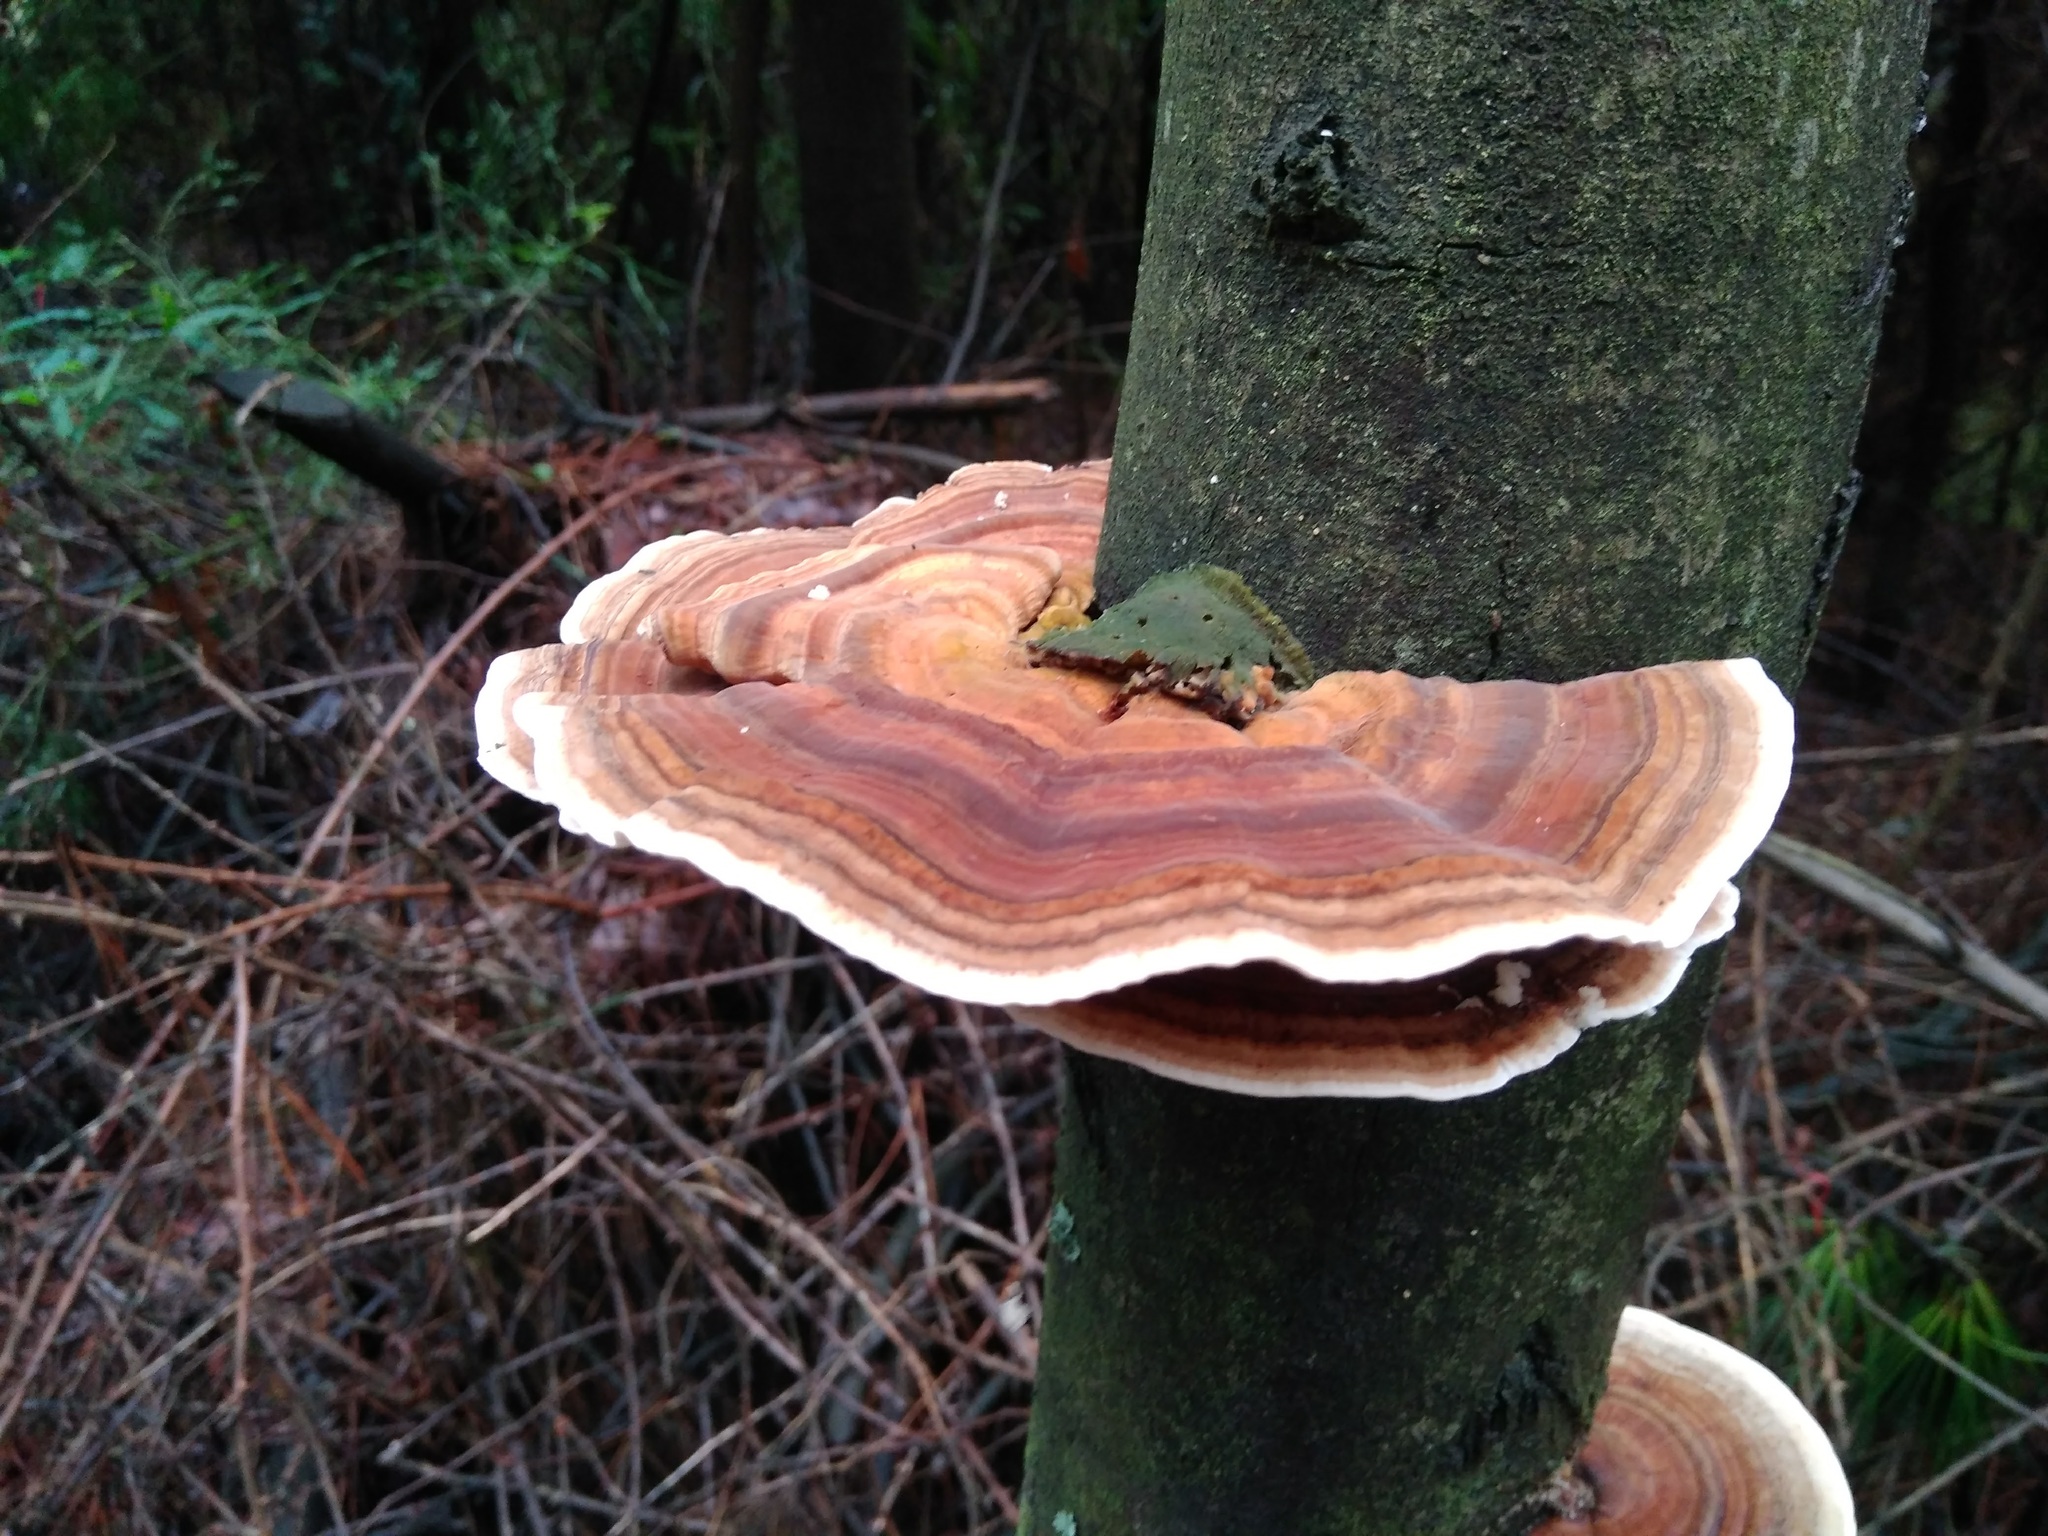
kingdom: Fungi
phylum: Basidiomycota
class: Agaricomycetes
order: Polyporales
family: Polyporaceae
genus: Trametes
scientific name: Trametes
